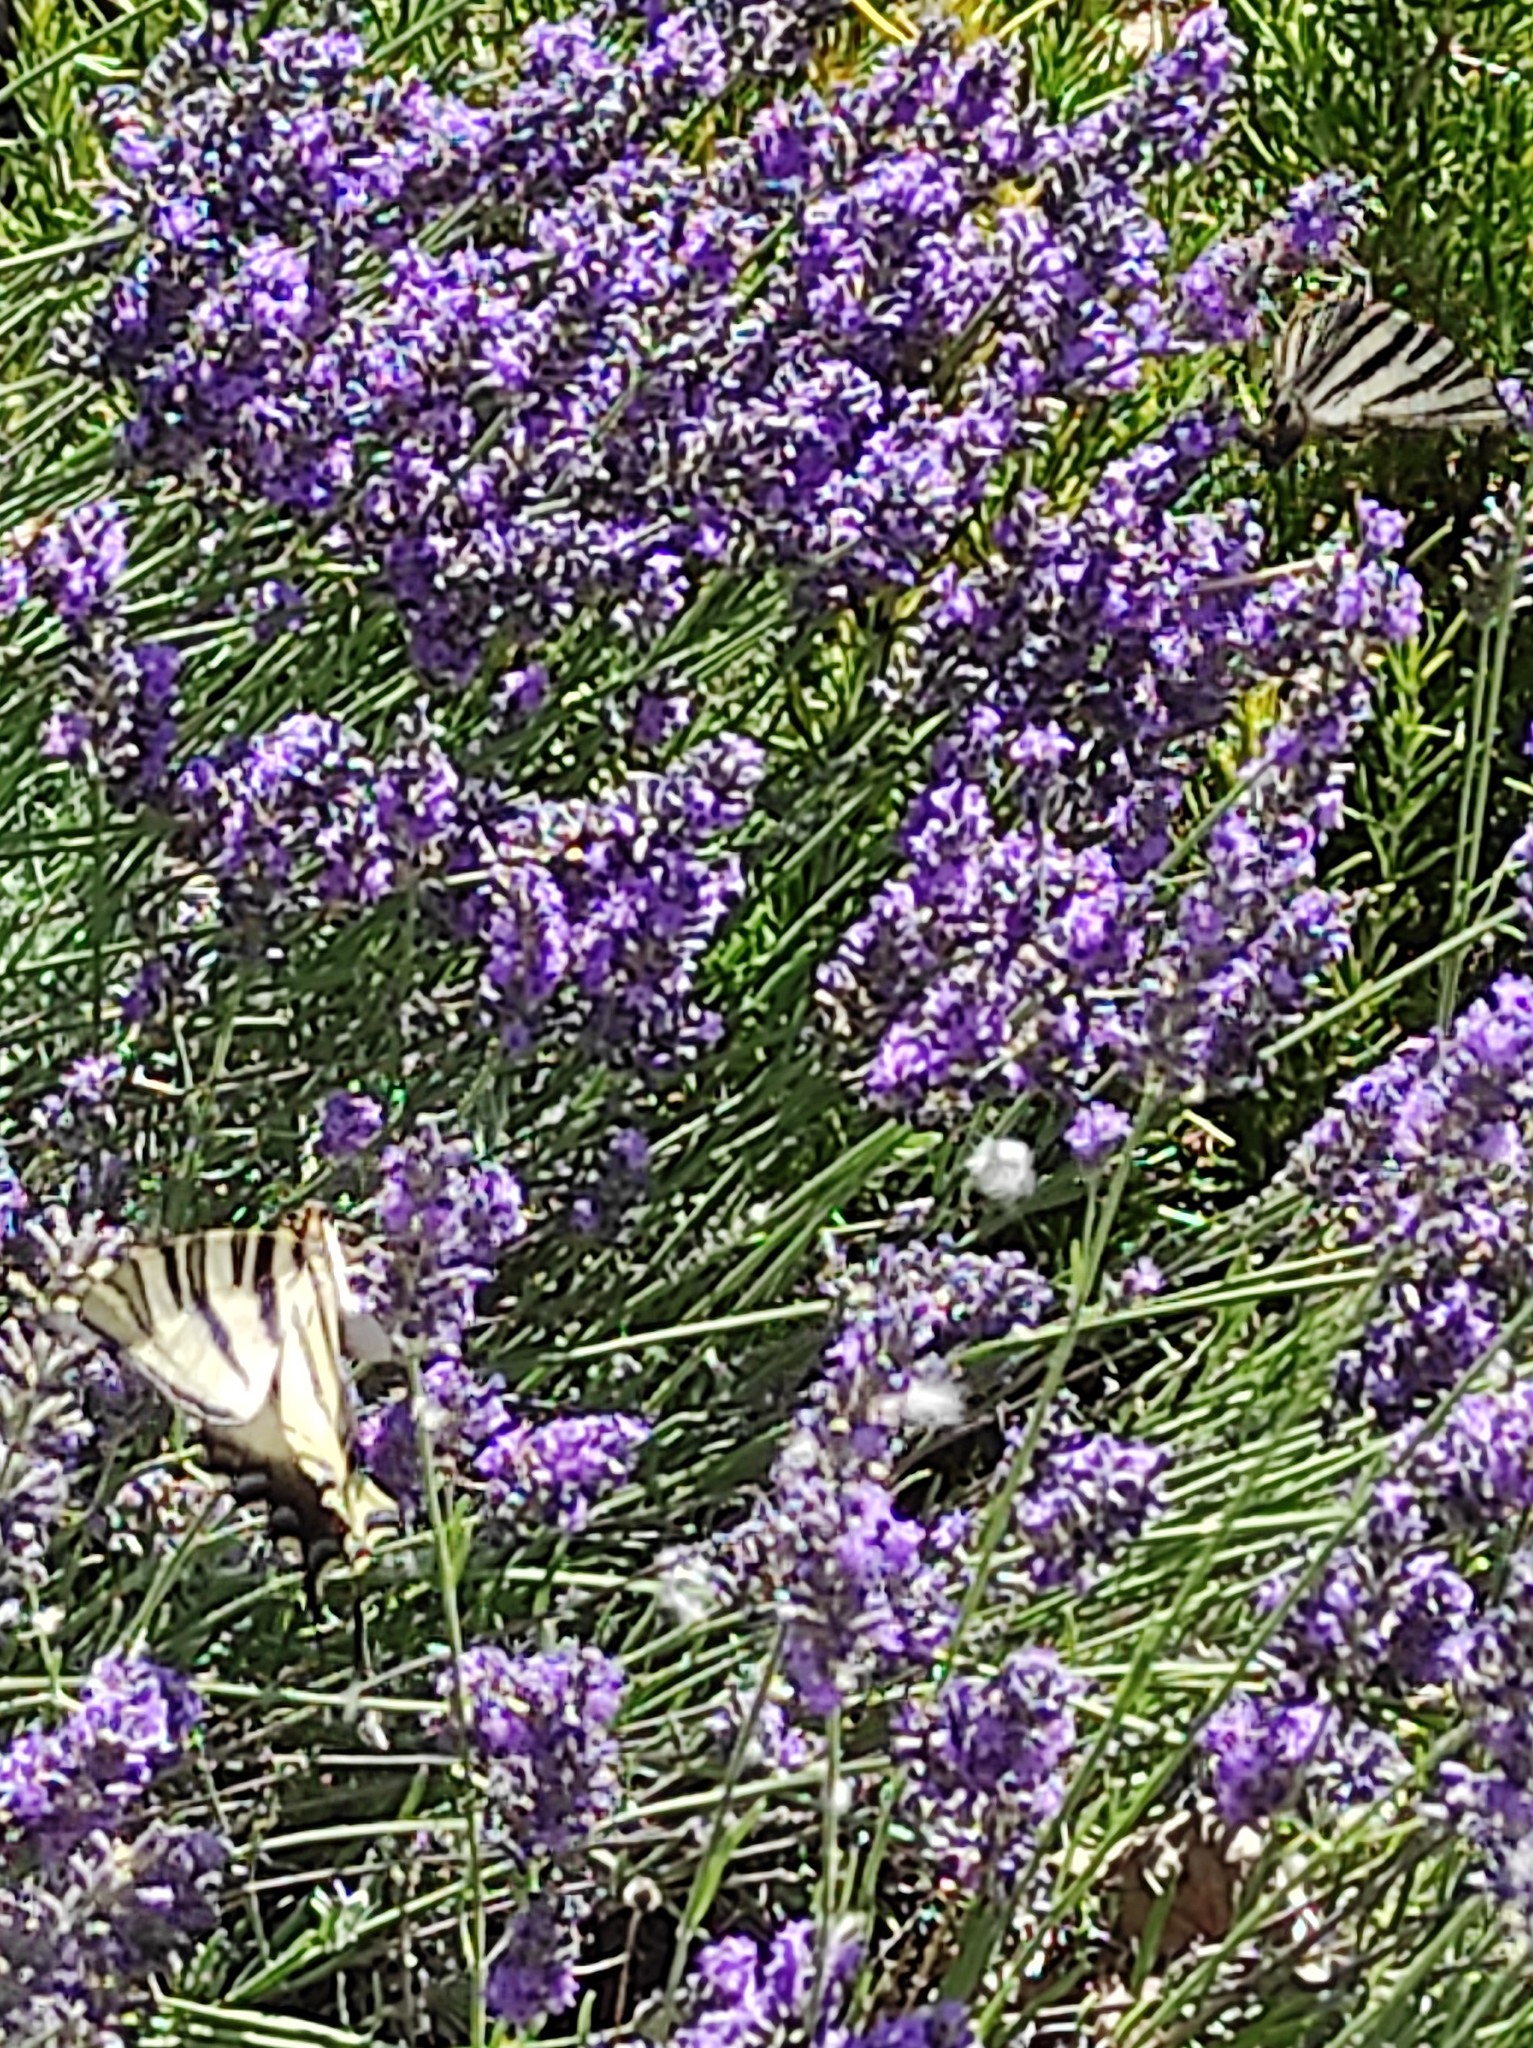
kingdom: Animalia
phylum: Arthropoda
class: Insecta
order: Lepidoptera
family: Papilionidae
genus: Iphiclides
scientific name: Iphiclides feisthamelii
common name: Iberian scarce swallowtail
